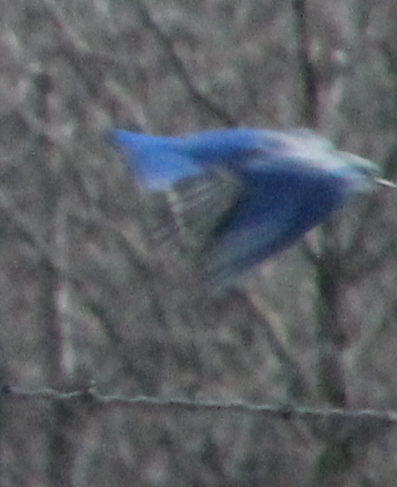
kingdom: Animalia
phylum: Chordata
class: Aves
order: Passeriformes
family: Turdidae
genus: Sialia
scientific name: Sialia sialis
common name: Eastern bluebird
